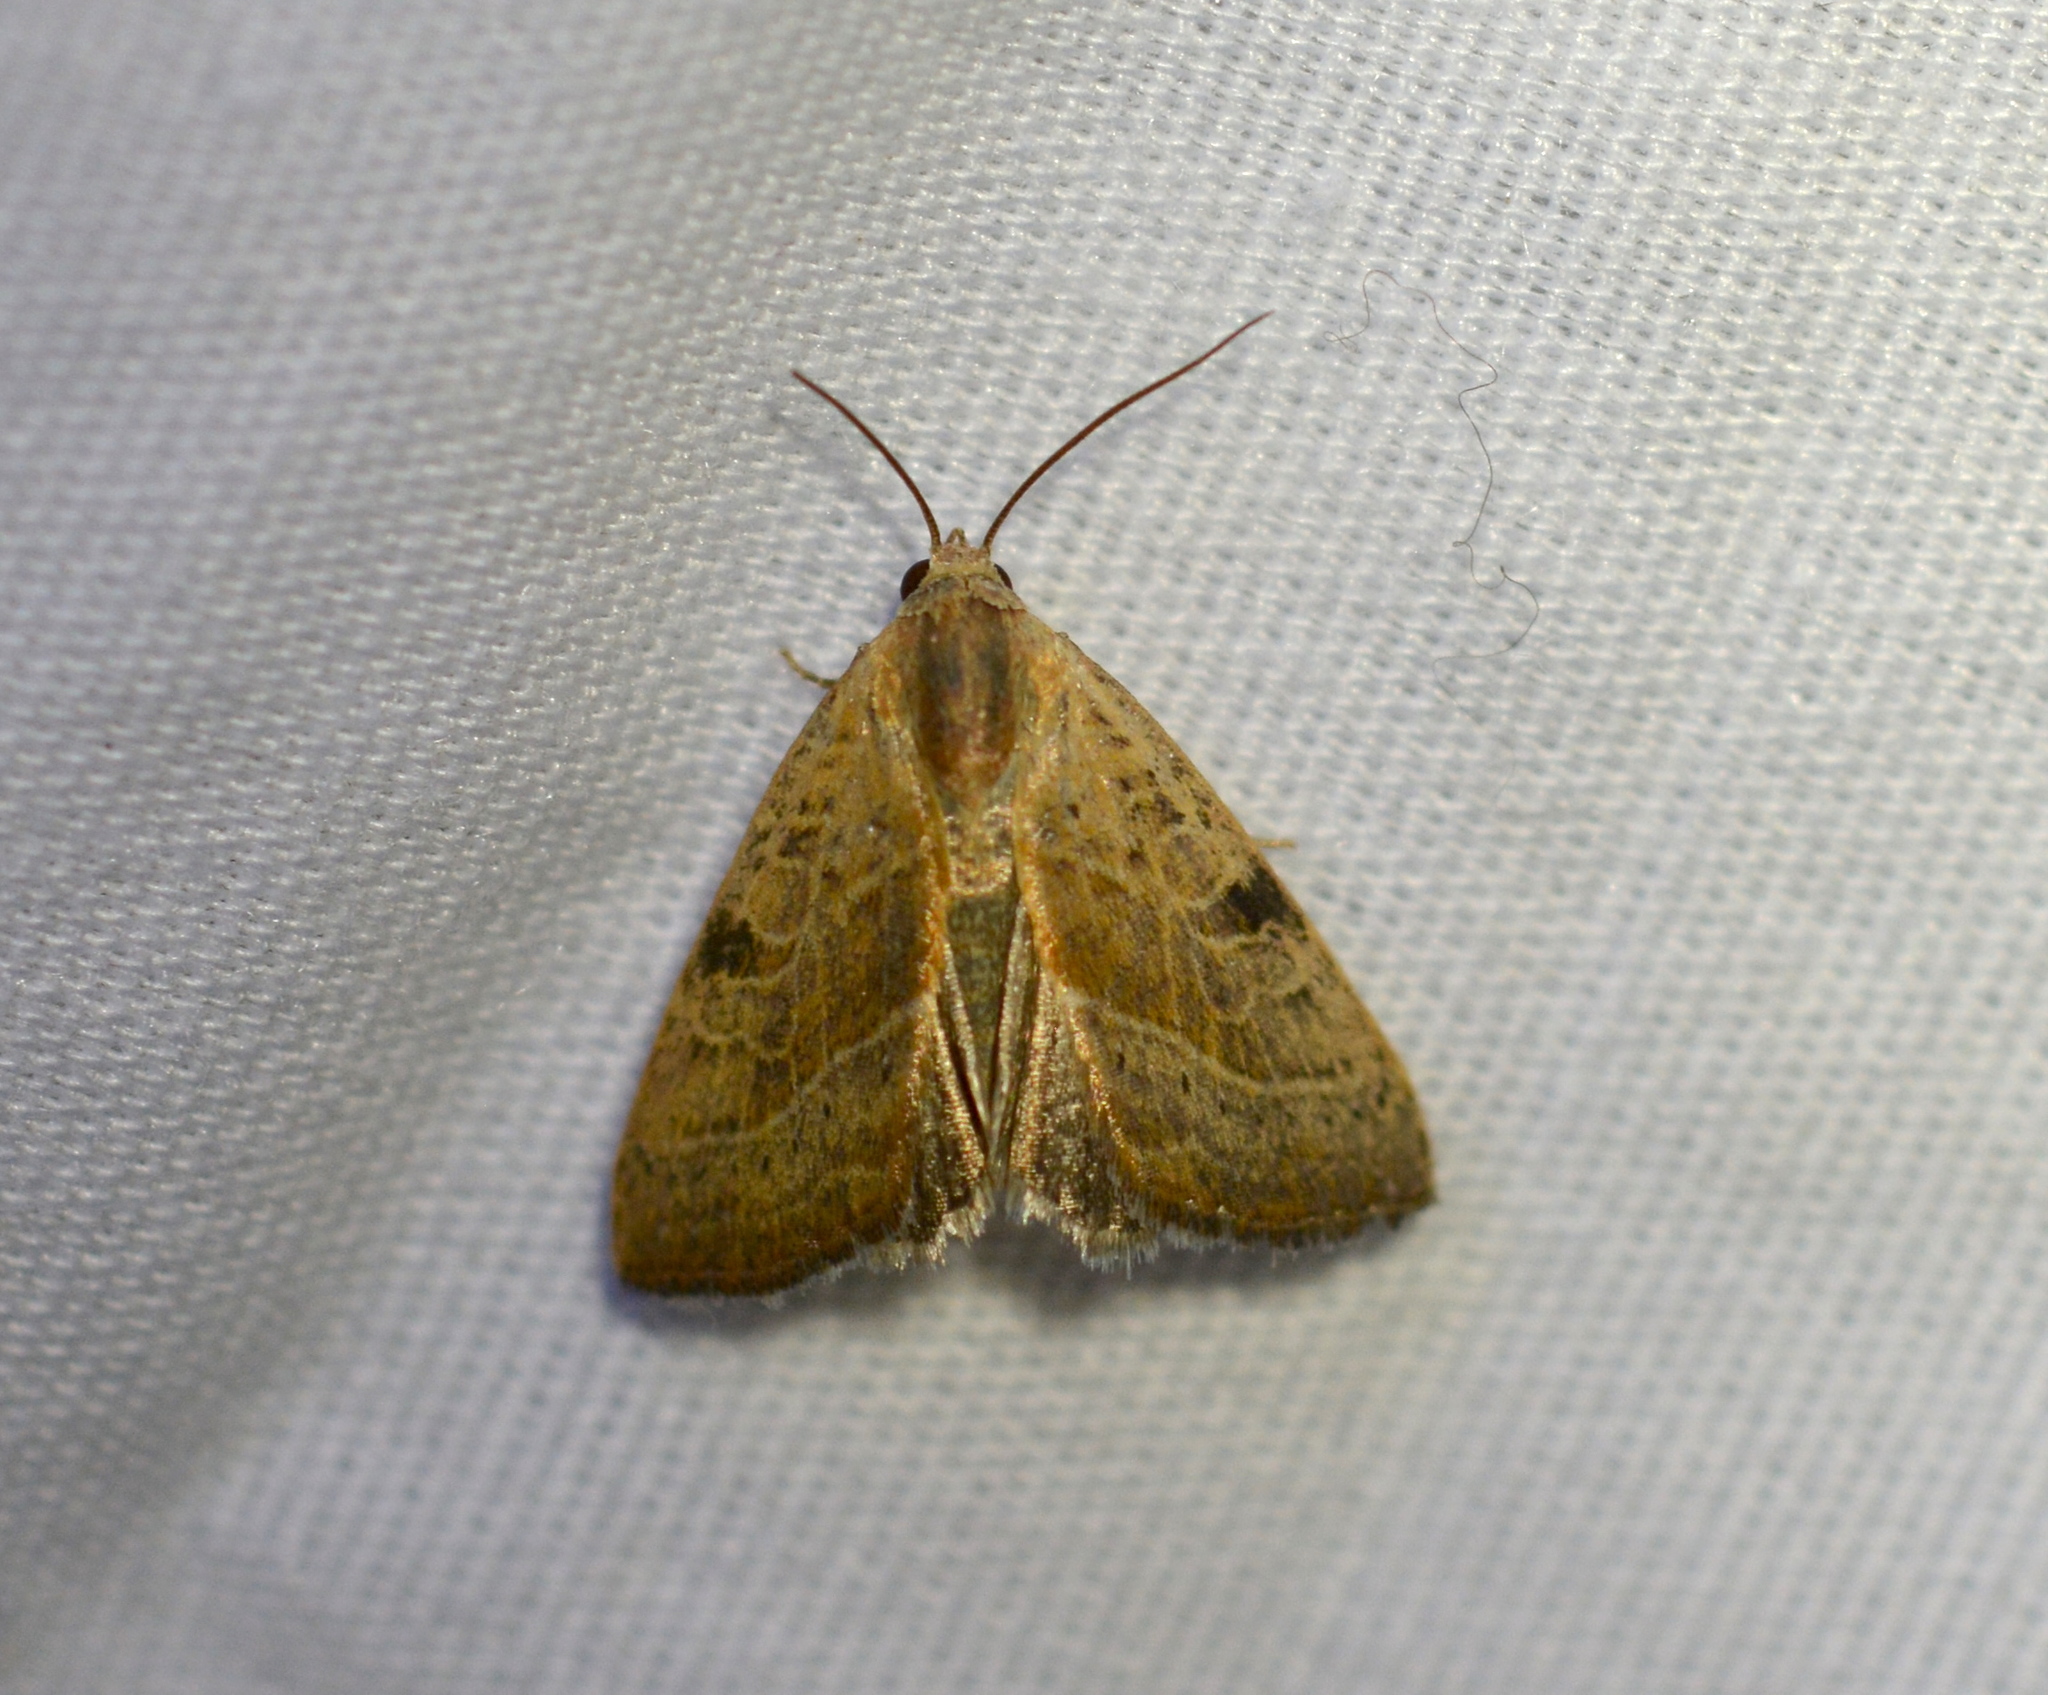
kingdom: Animalia
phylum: Arthropoda
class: Insecta
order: Lepidoptera
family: Noctuidae
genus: Galgula
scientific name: Galgula partita
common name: Wedgeling
